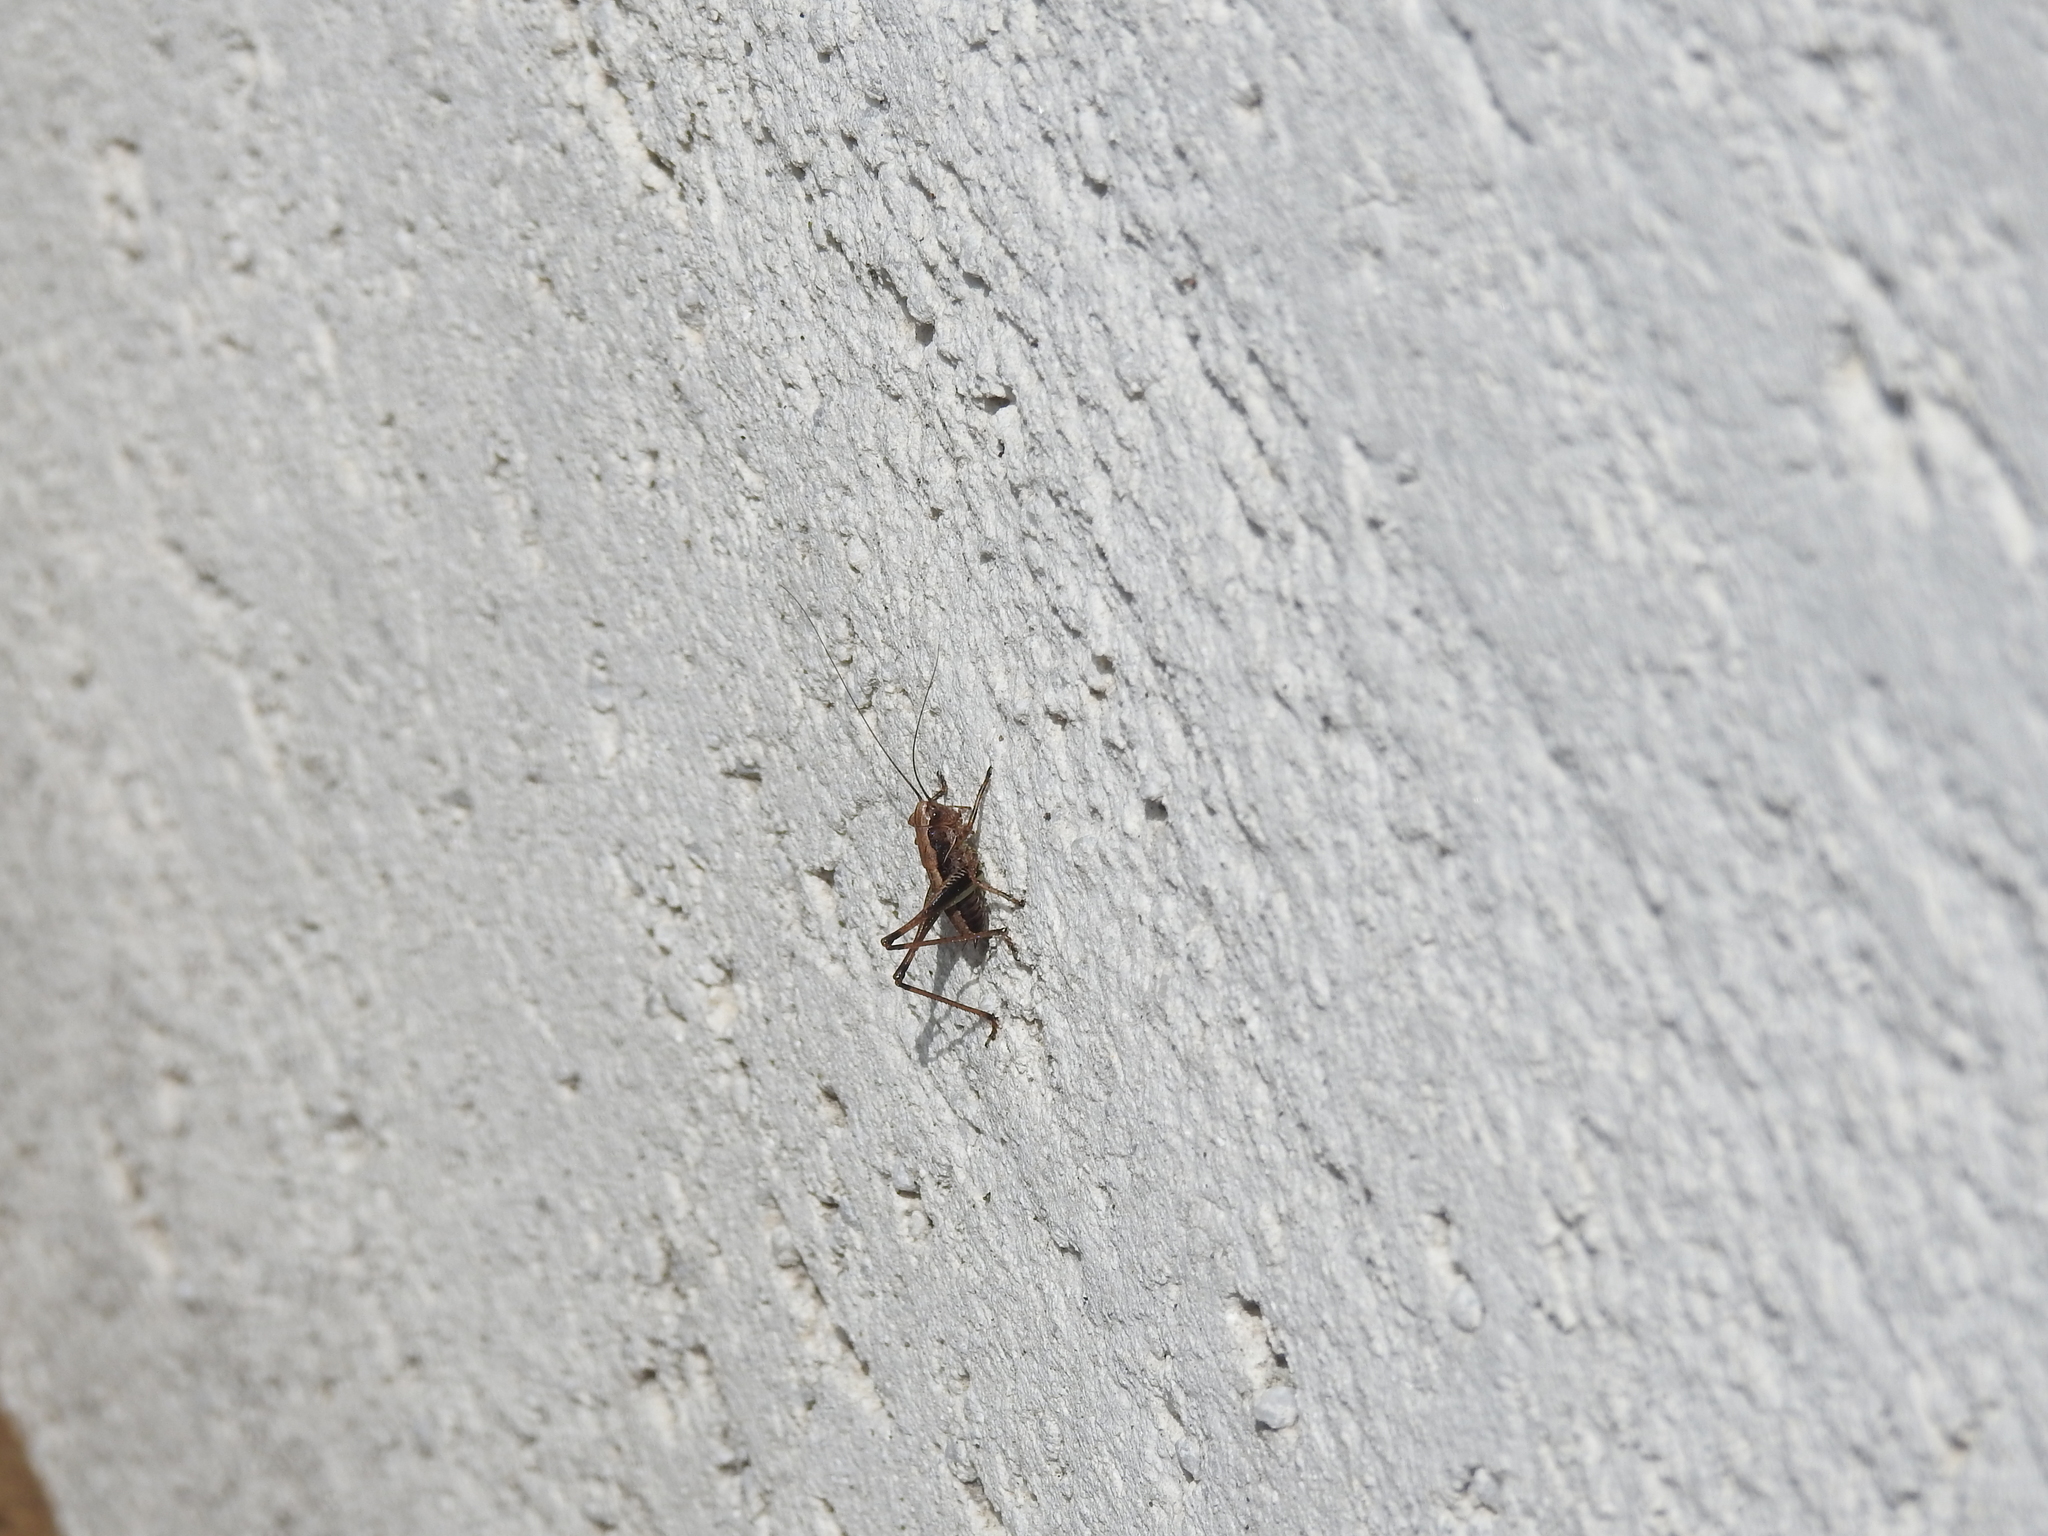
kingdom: Animalia
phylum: Arthropoda
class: Insecta
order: Orthoptera
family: Tettigoniidae
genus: Pholidoptera
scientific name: Pholidoptera griseoaptera
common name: Dark bush-cricket
